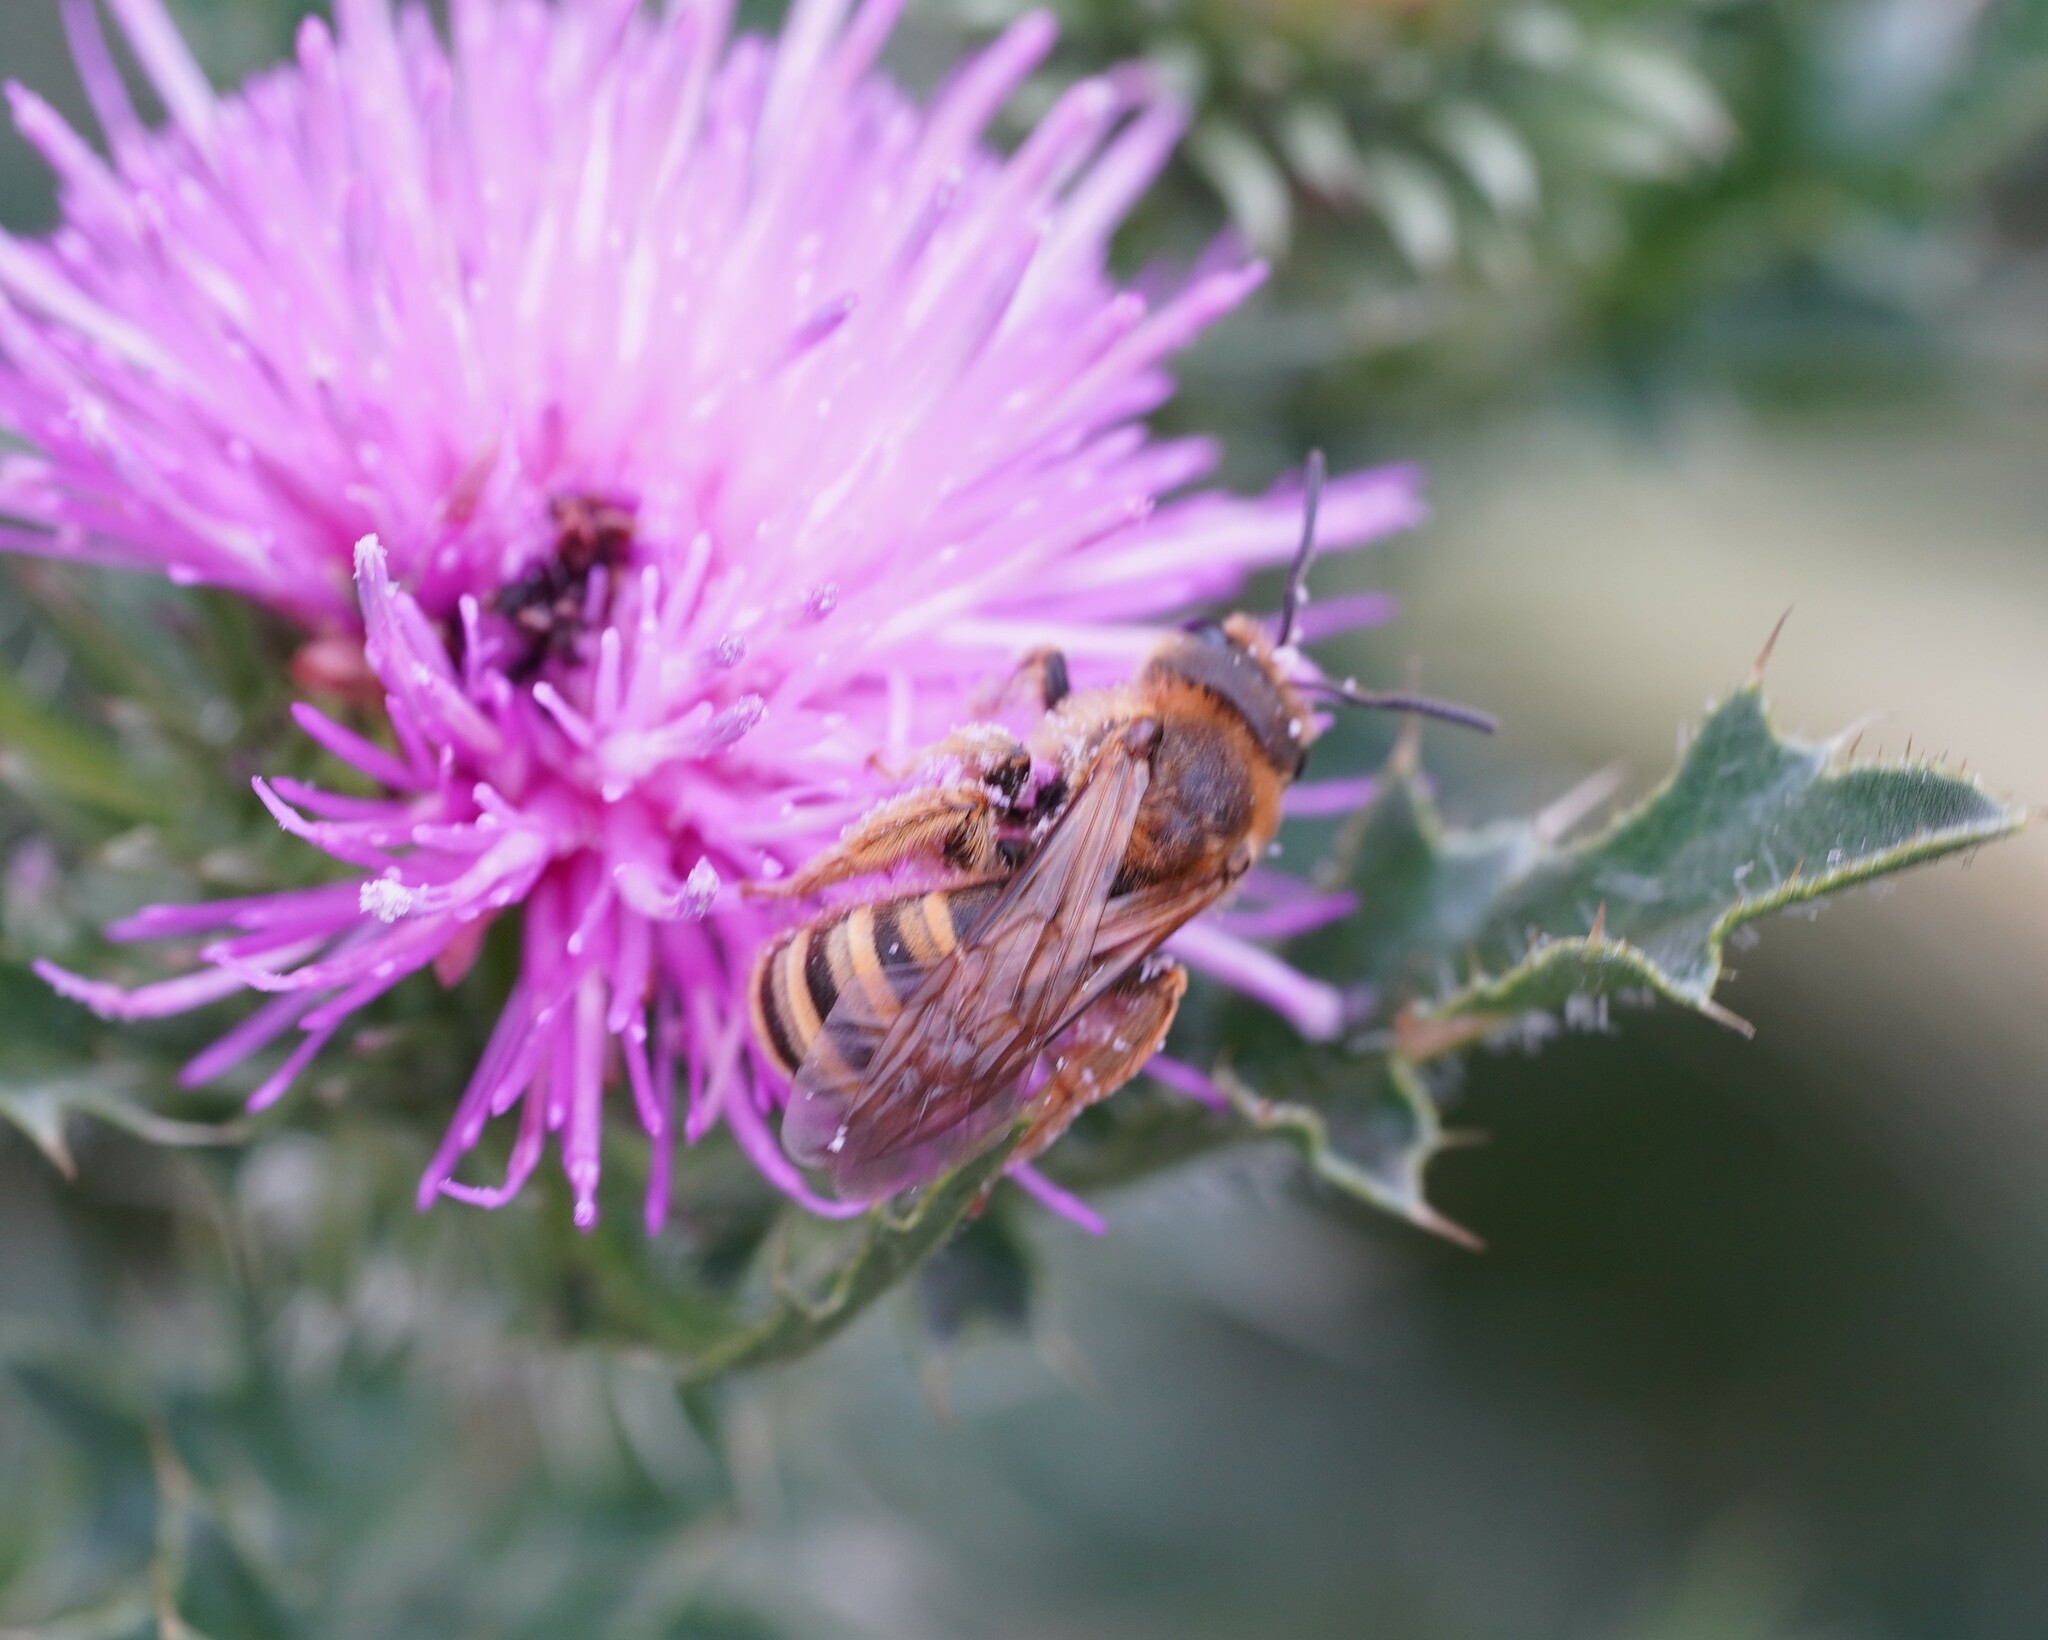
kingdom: Animalia
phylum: Arthropoda
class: Insecta
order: Hymenoptera
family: Halictidae
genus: Halictus
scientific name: Halictus scabiosae
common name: Great banded furrow bee
